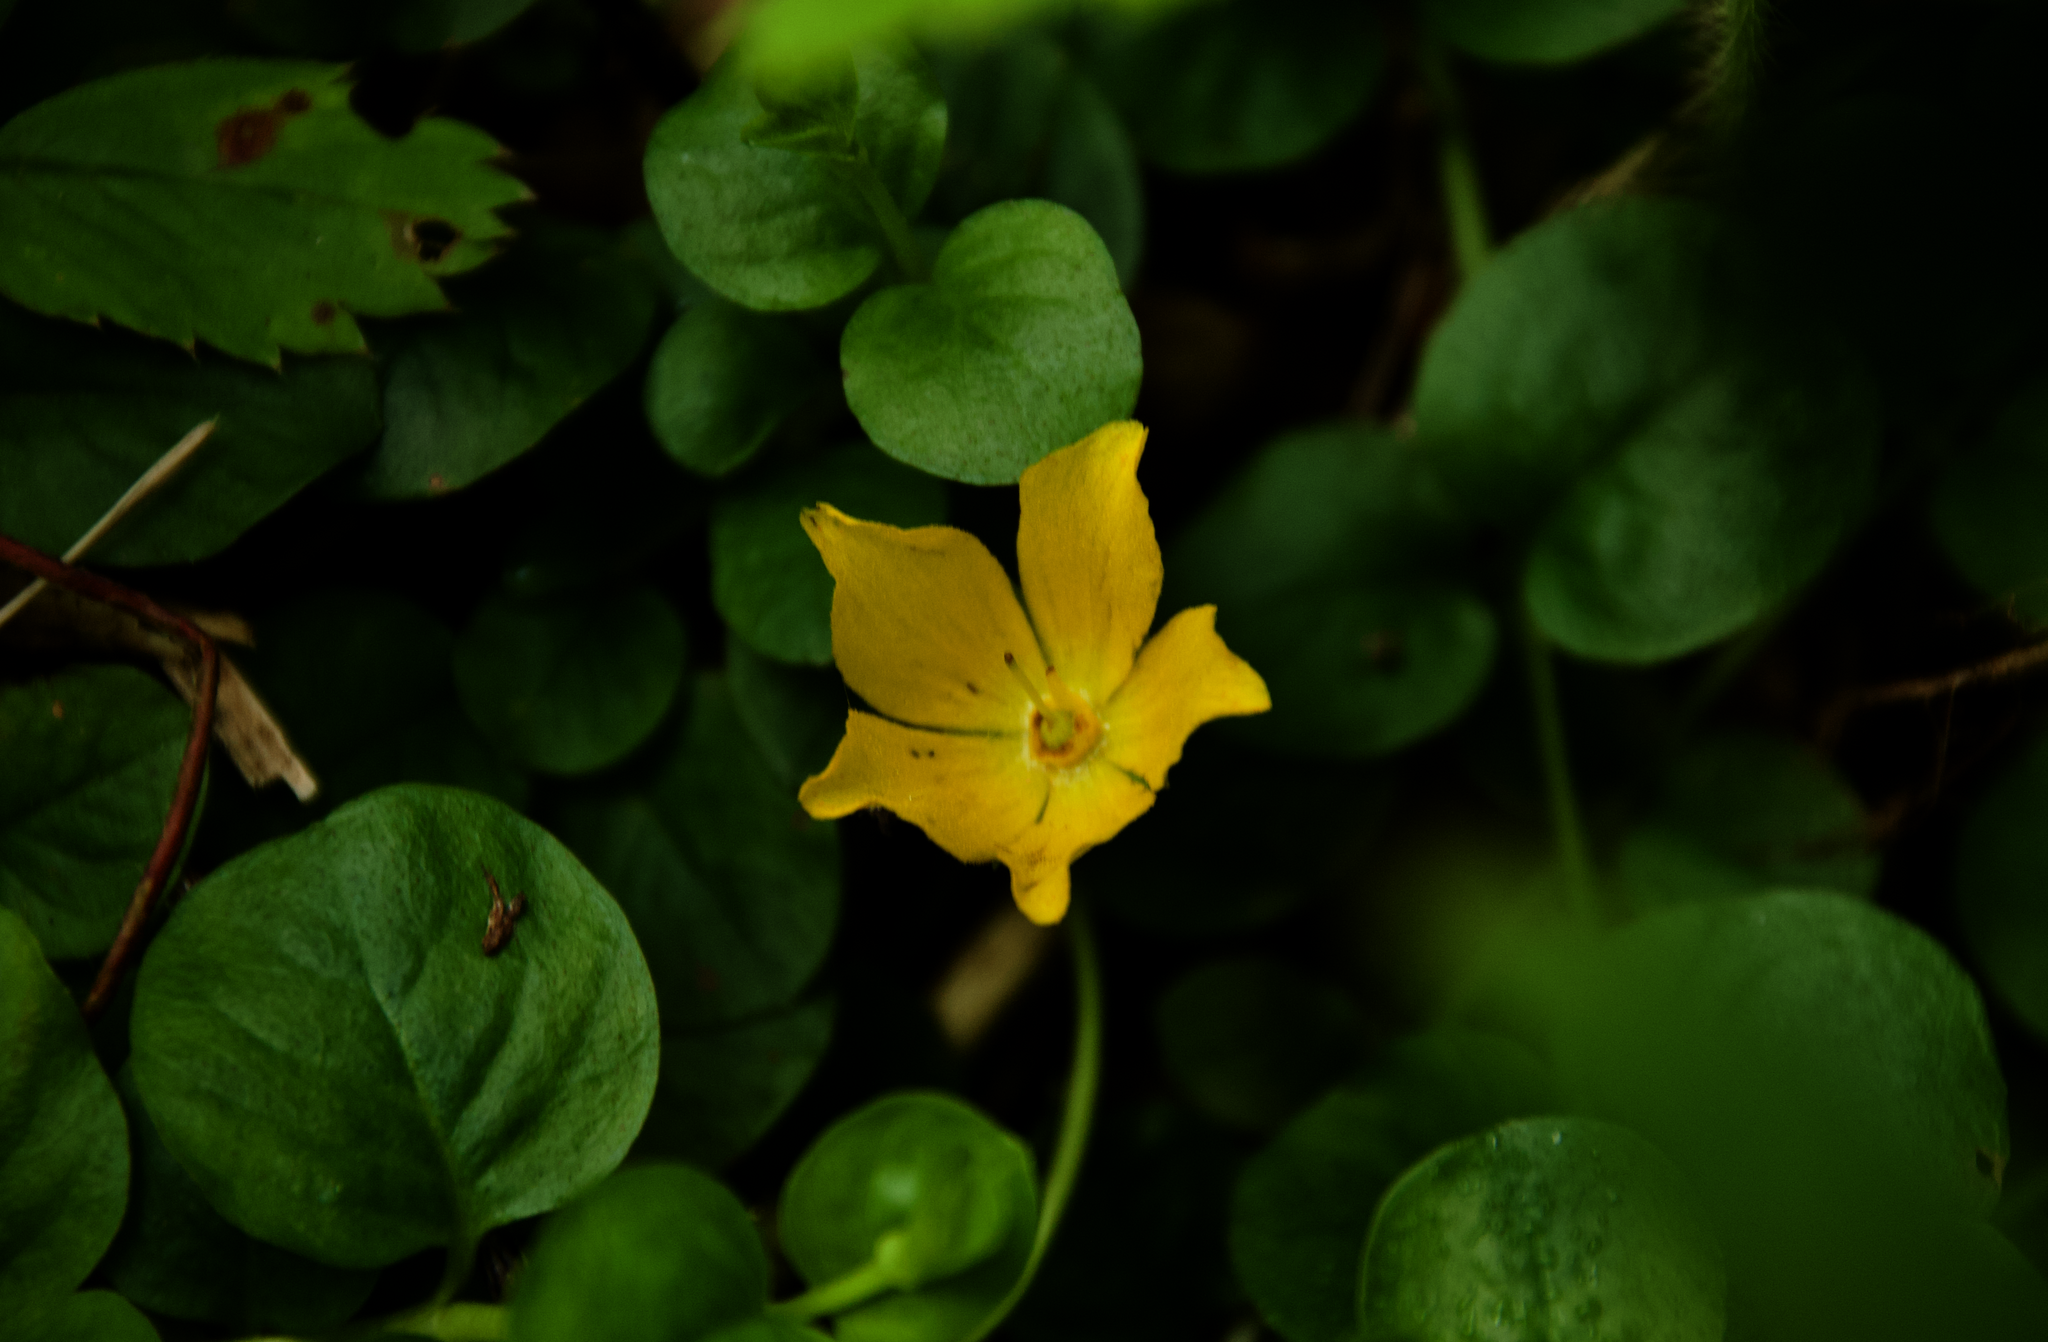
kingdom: Plantae
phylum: Tracheophyta
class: Magnoliopsida
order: Ericales
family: Primulaceae
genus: Lysimachia
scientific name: Lysimachia nummularia
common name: Moneywort
